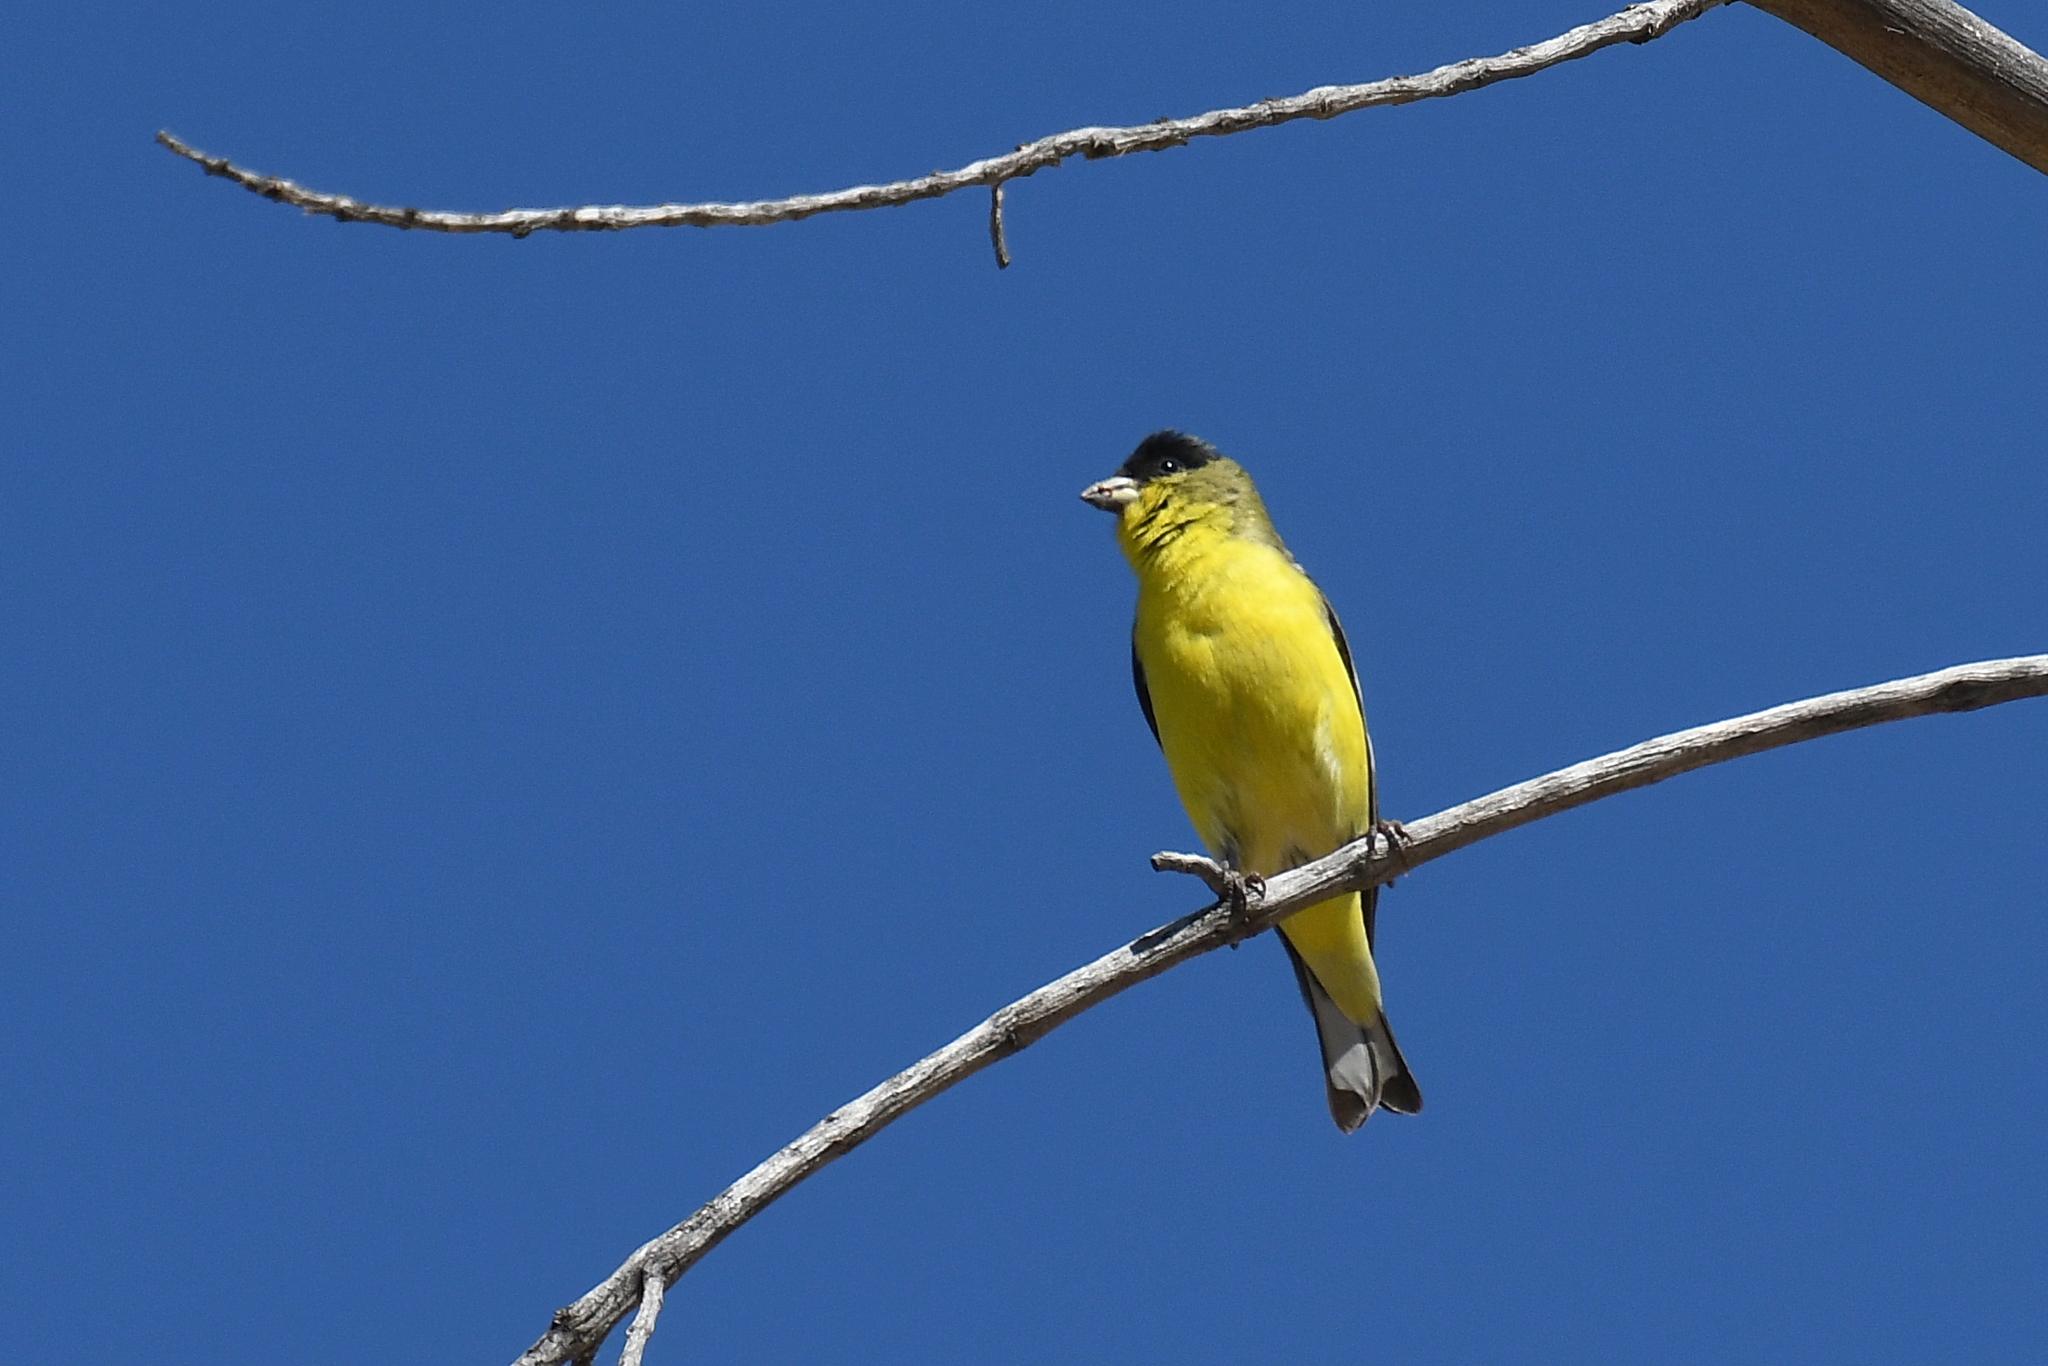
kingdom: Animalia
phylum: Chordata
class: Aves
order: Passeriformes
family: Fringillidae
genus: Spinus
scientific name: Spinus psaltria
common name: Lesser goldfinch
